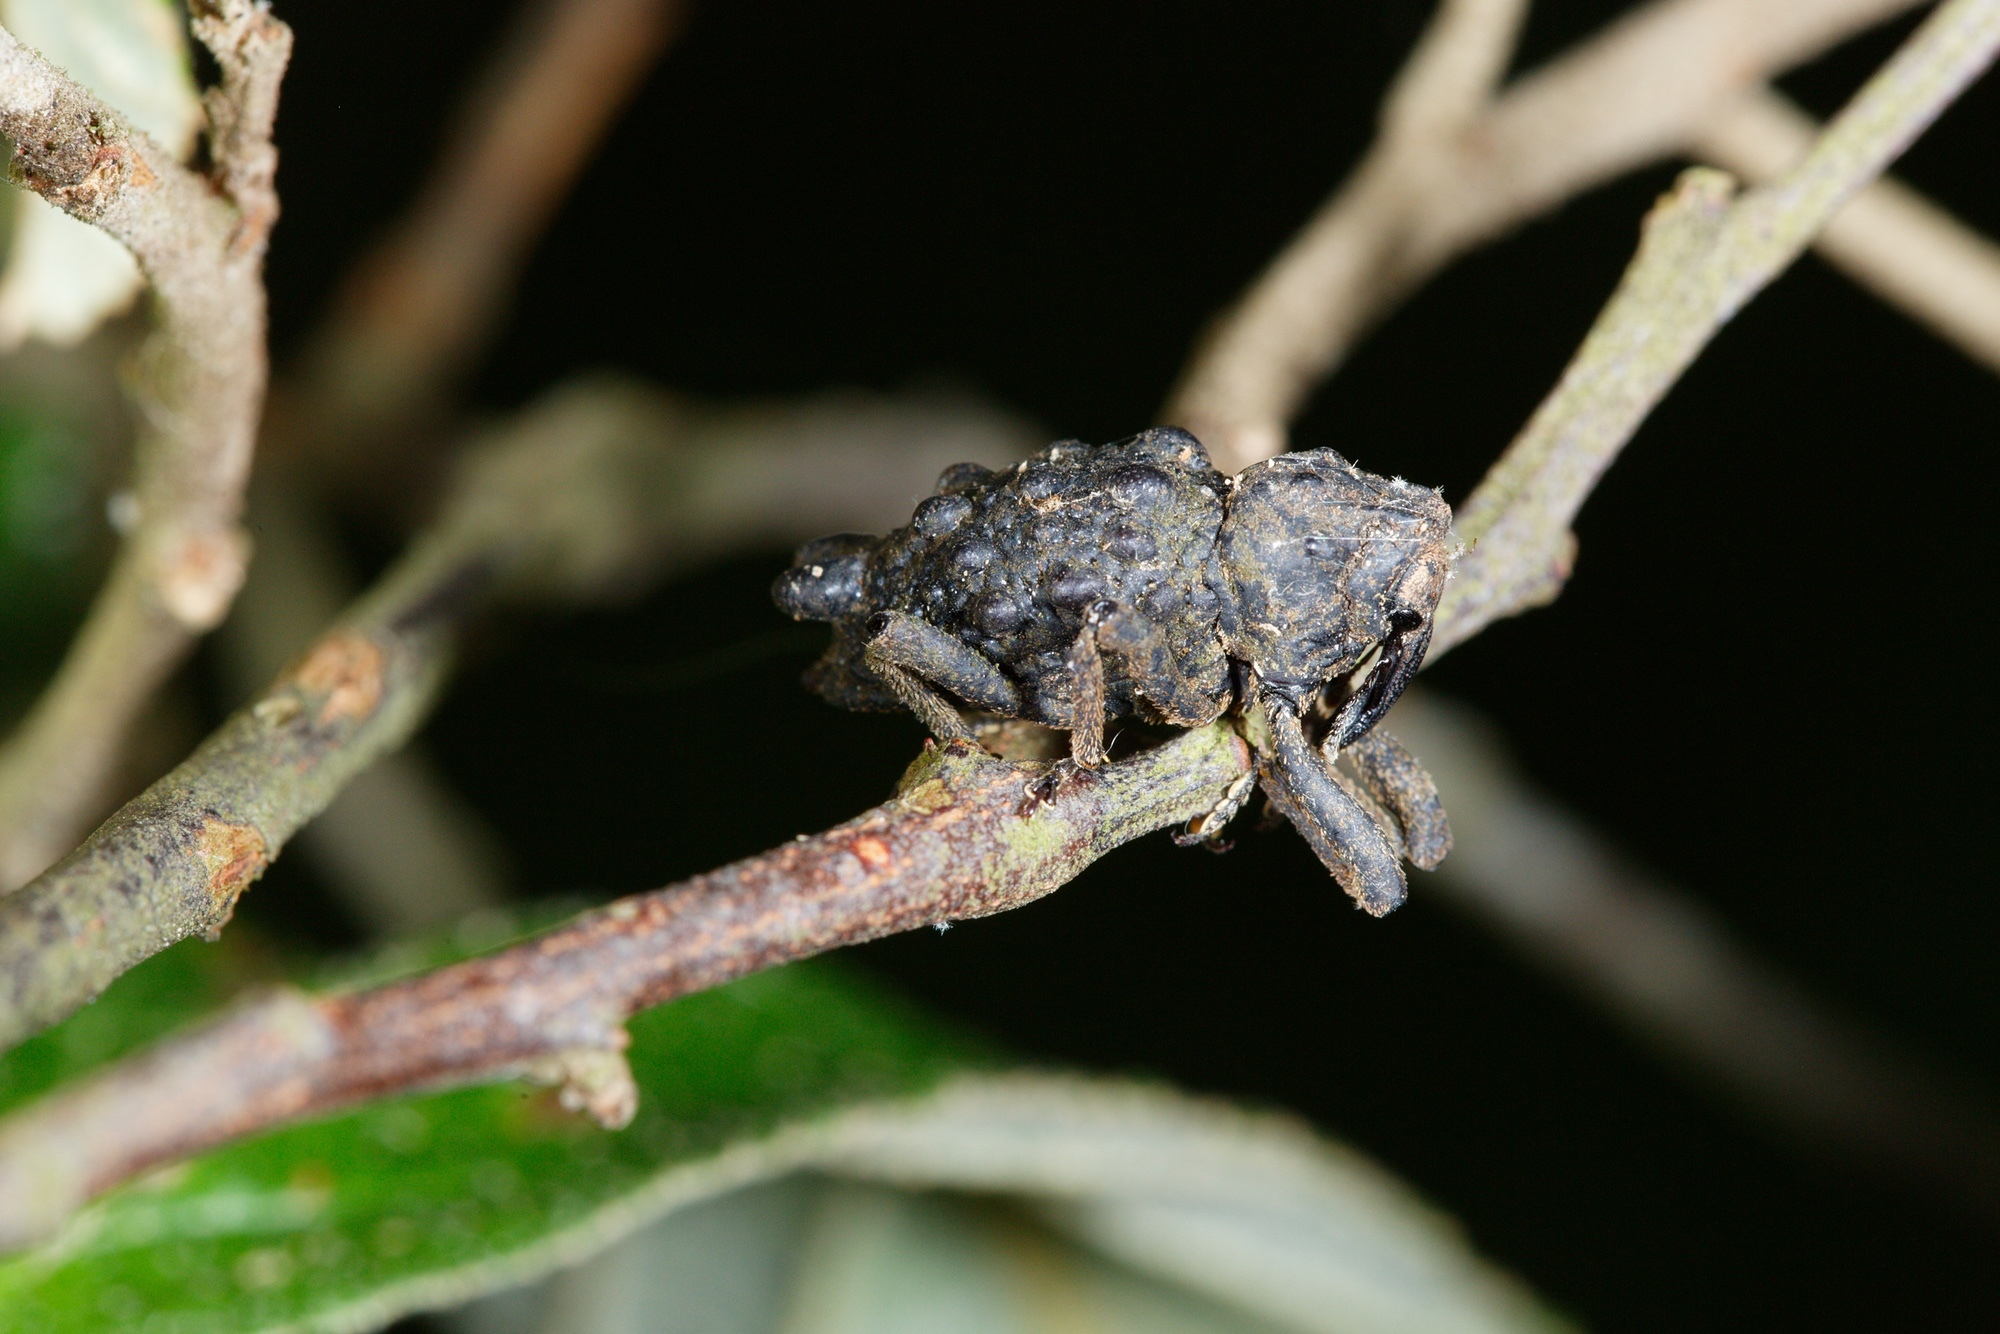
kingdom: Animalia
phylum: Arthropoda
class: Insecta
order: Coleoptera
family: Curculionidae
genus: Poropterus
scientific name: Poropterus conifer
